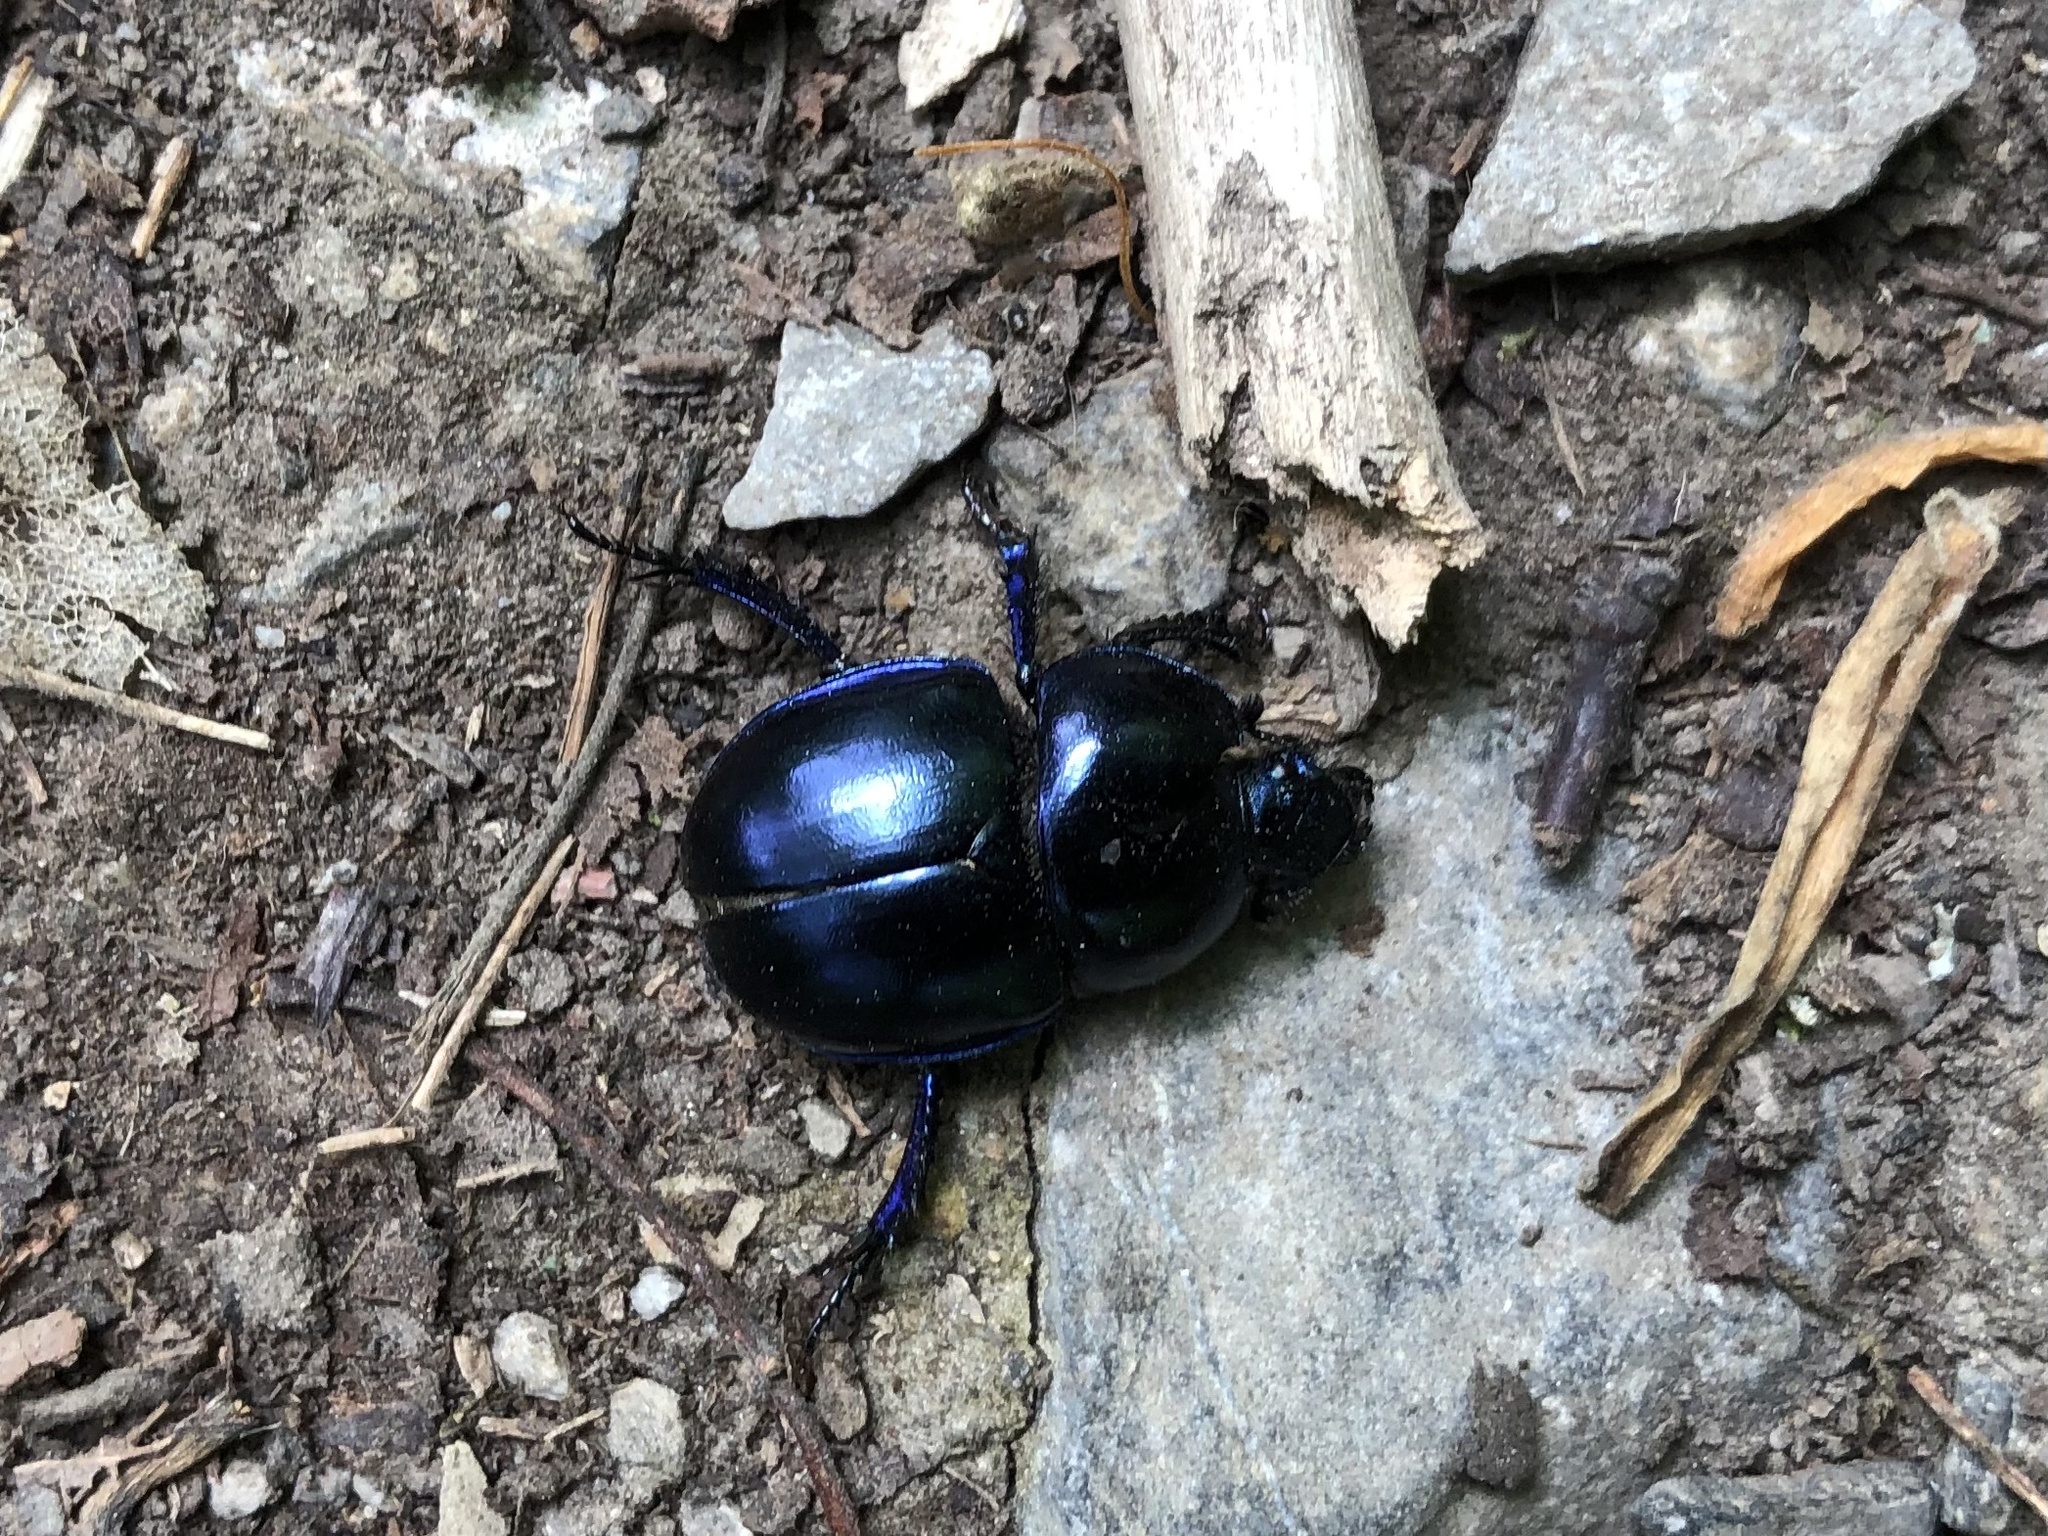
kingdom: Animalia
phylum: Arthropoda
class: Insecta
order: Coleoptera
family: Geotrupidae
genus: Trypocopris
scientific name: Trypocopris vernalis
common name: Spring dumbledor
